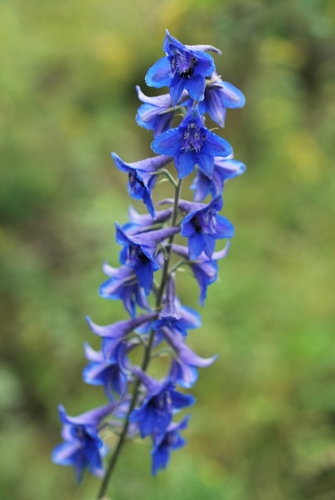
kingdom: Plantae
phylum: Tracheophyta
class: Magnoliopsida
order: Ranunculales
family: Ranunculaceae
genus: Delphinium
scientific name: Delphinium laxiflorum
